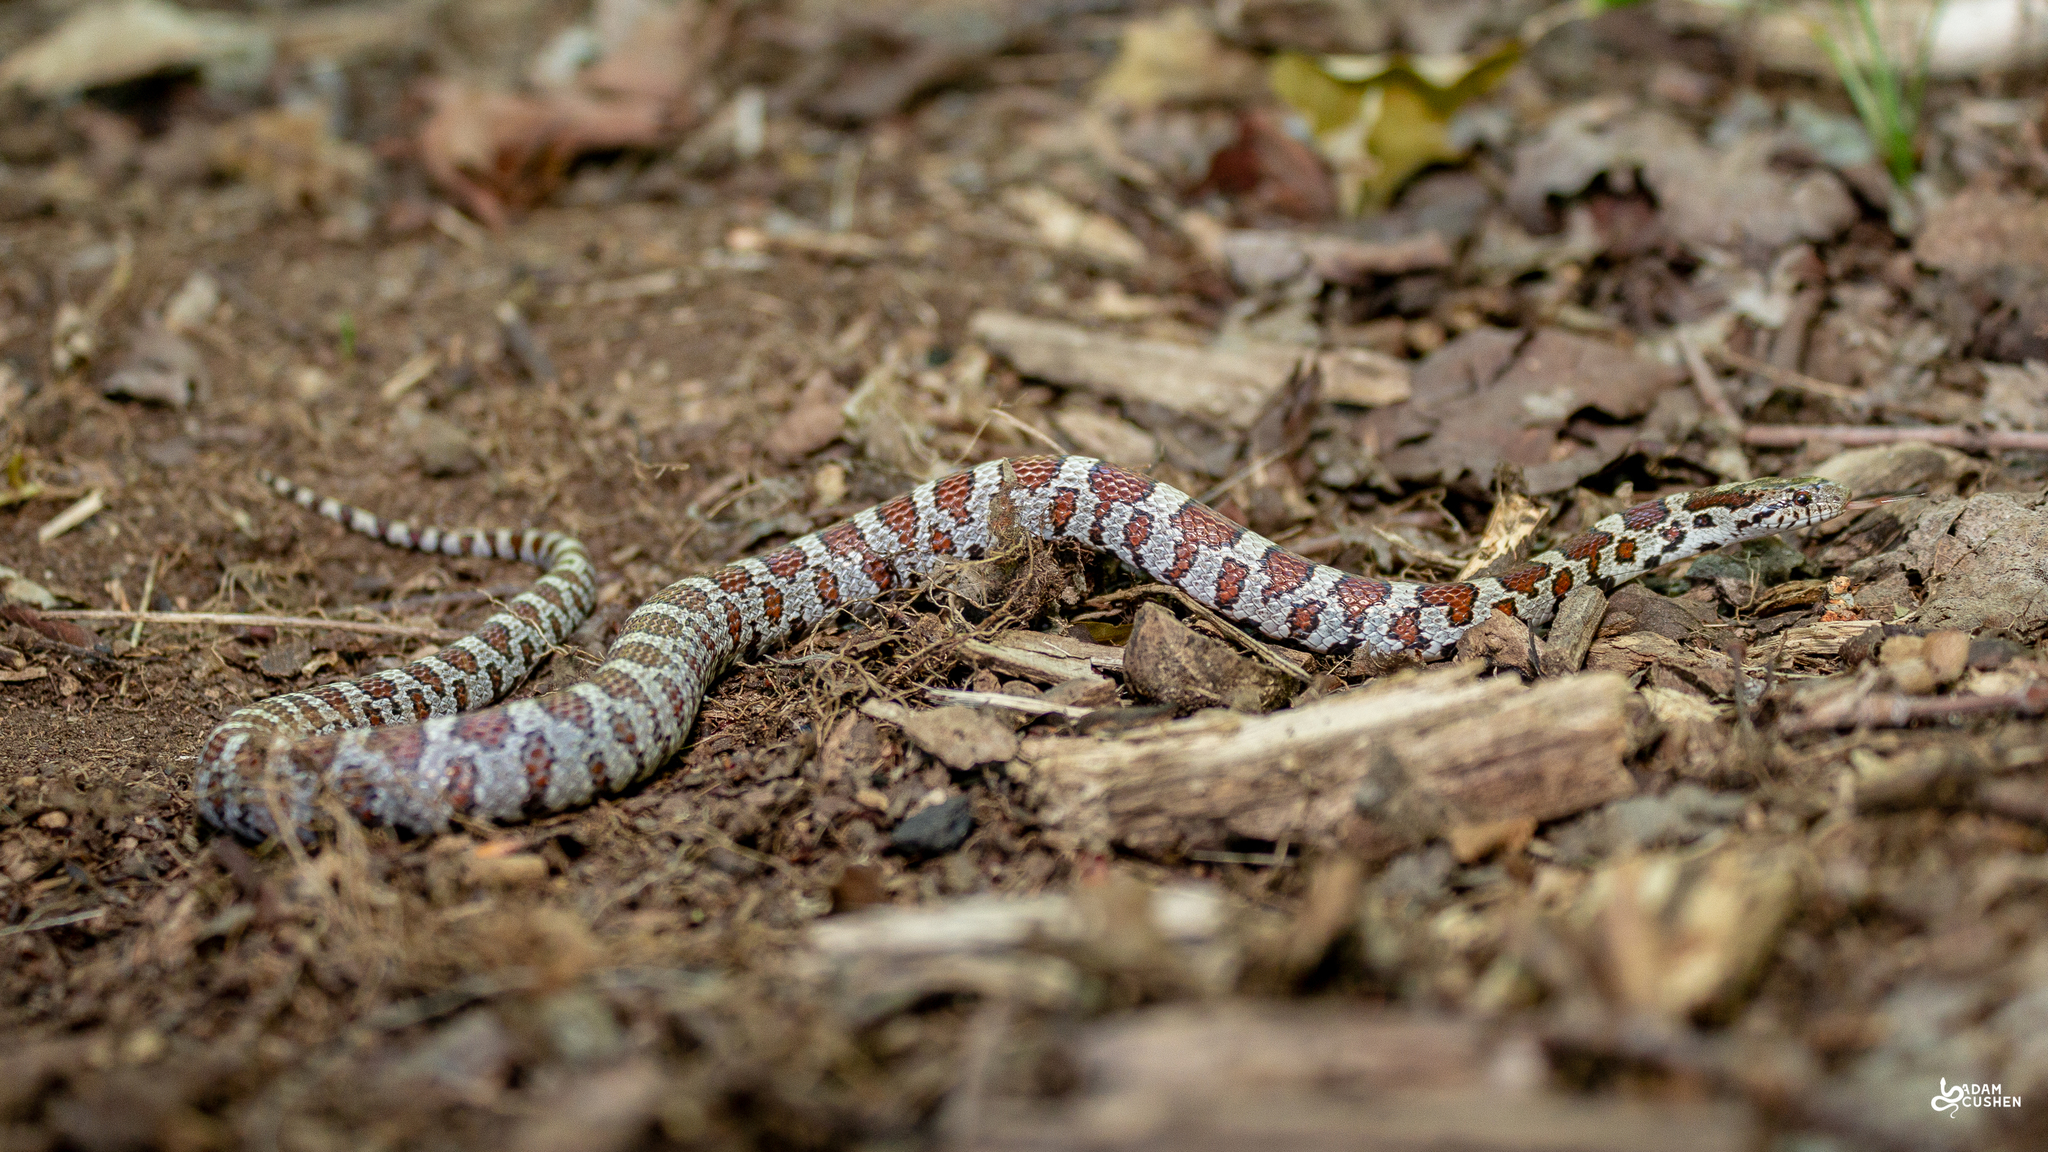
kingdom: Animalia
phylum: Chordata
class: Squamata
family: Colubridae
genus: Lampropeltis
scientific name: Lampropeltis triangulum
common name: Eastern milksnake
